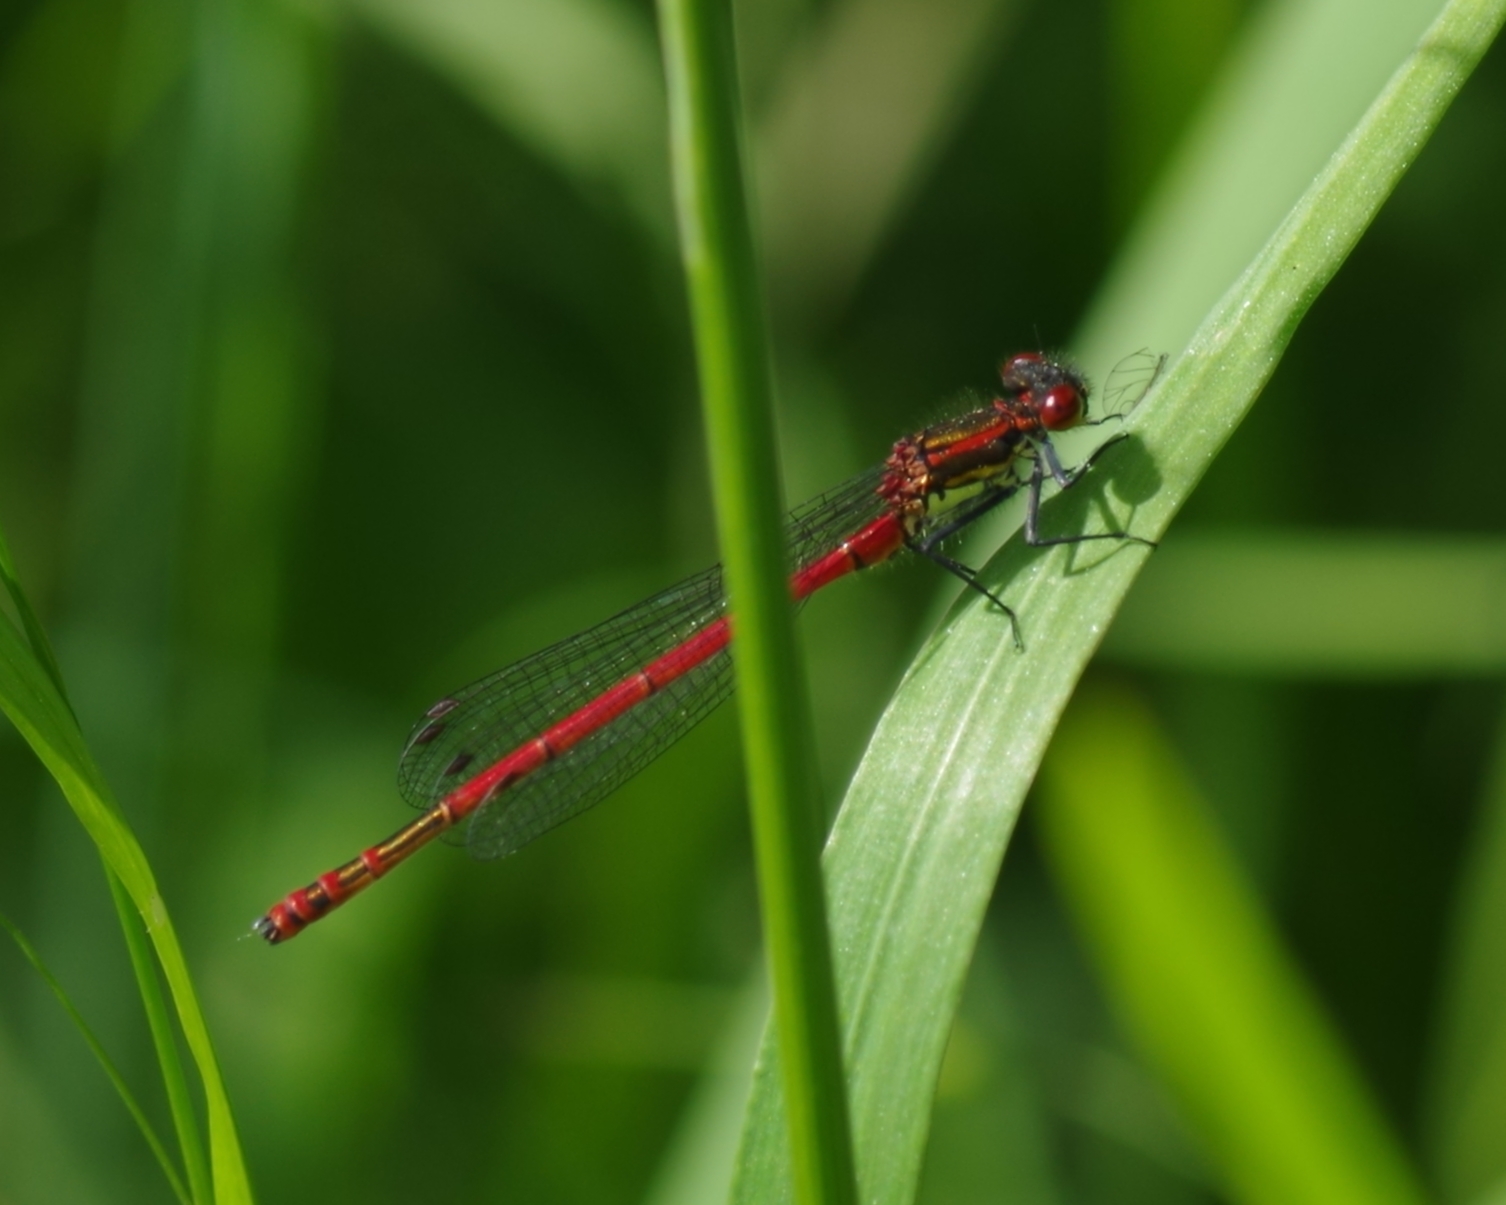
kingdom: Animalia
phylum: Arthropoda
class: Insecta
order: Odonata
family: Coenagrionidae
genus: Pyrrhosoma
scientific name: Pyrrhosoma nymphula
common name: Large red damsel
